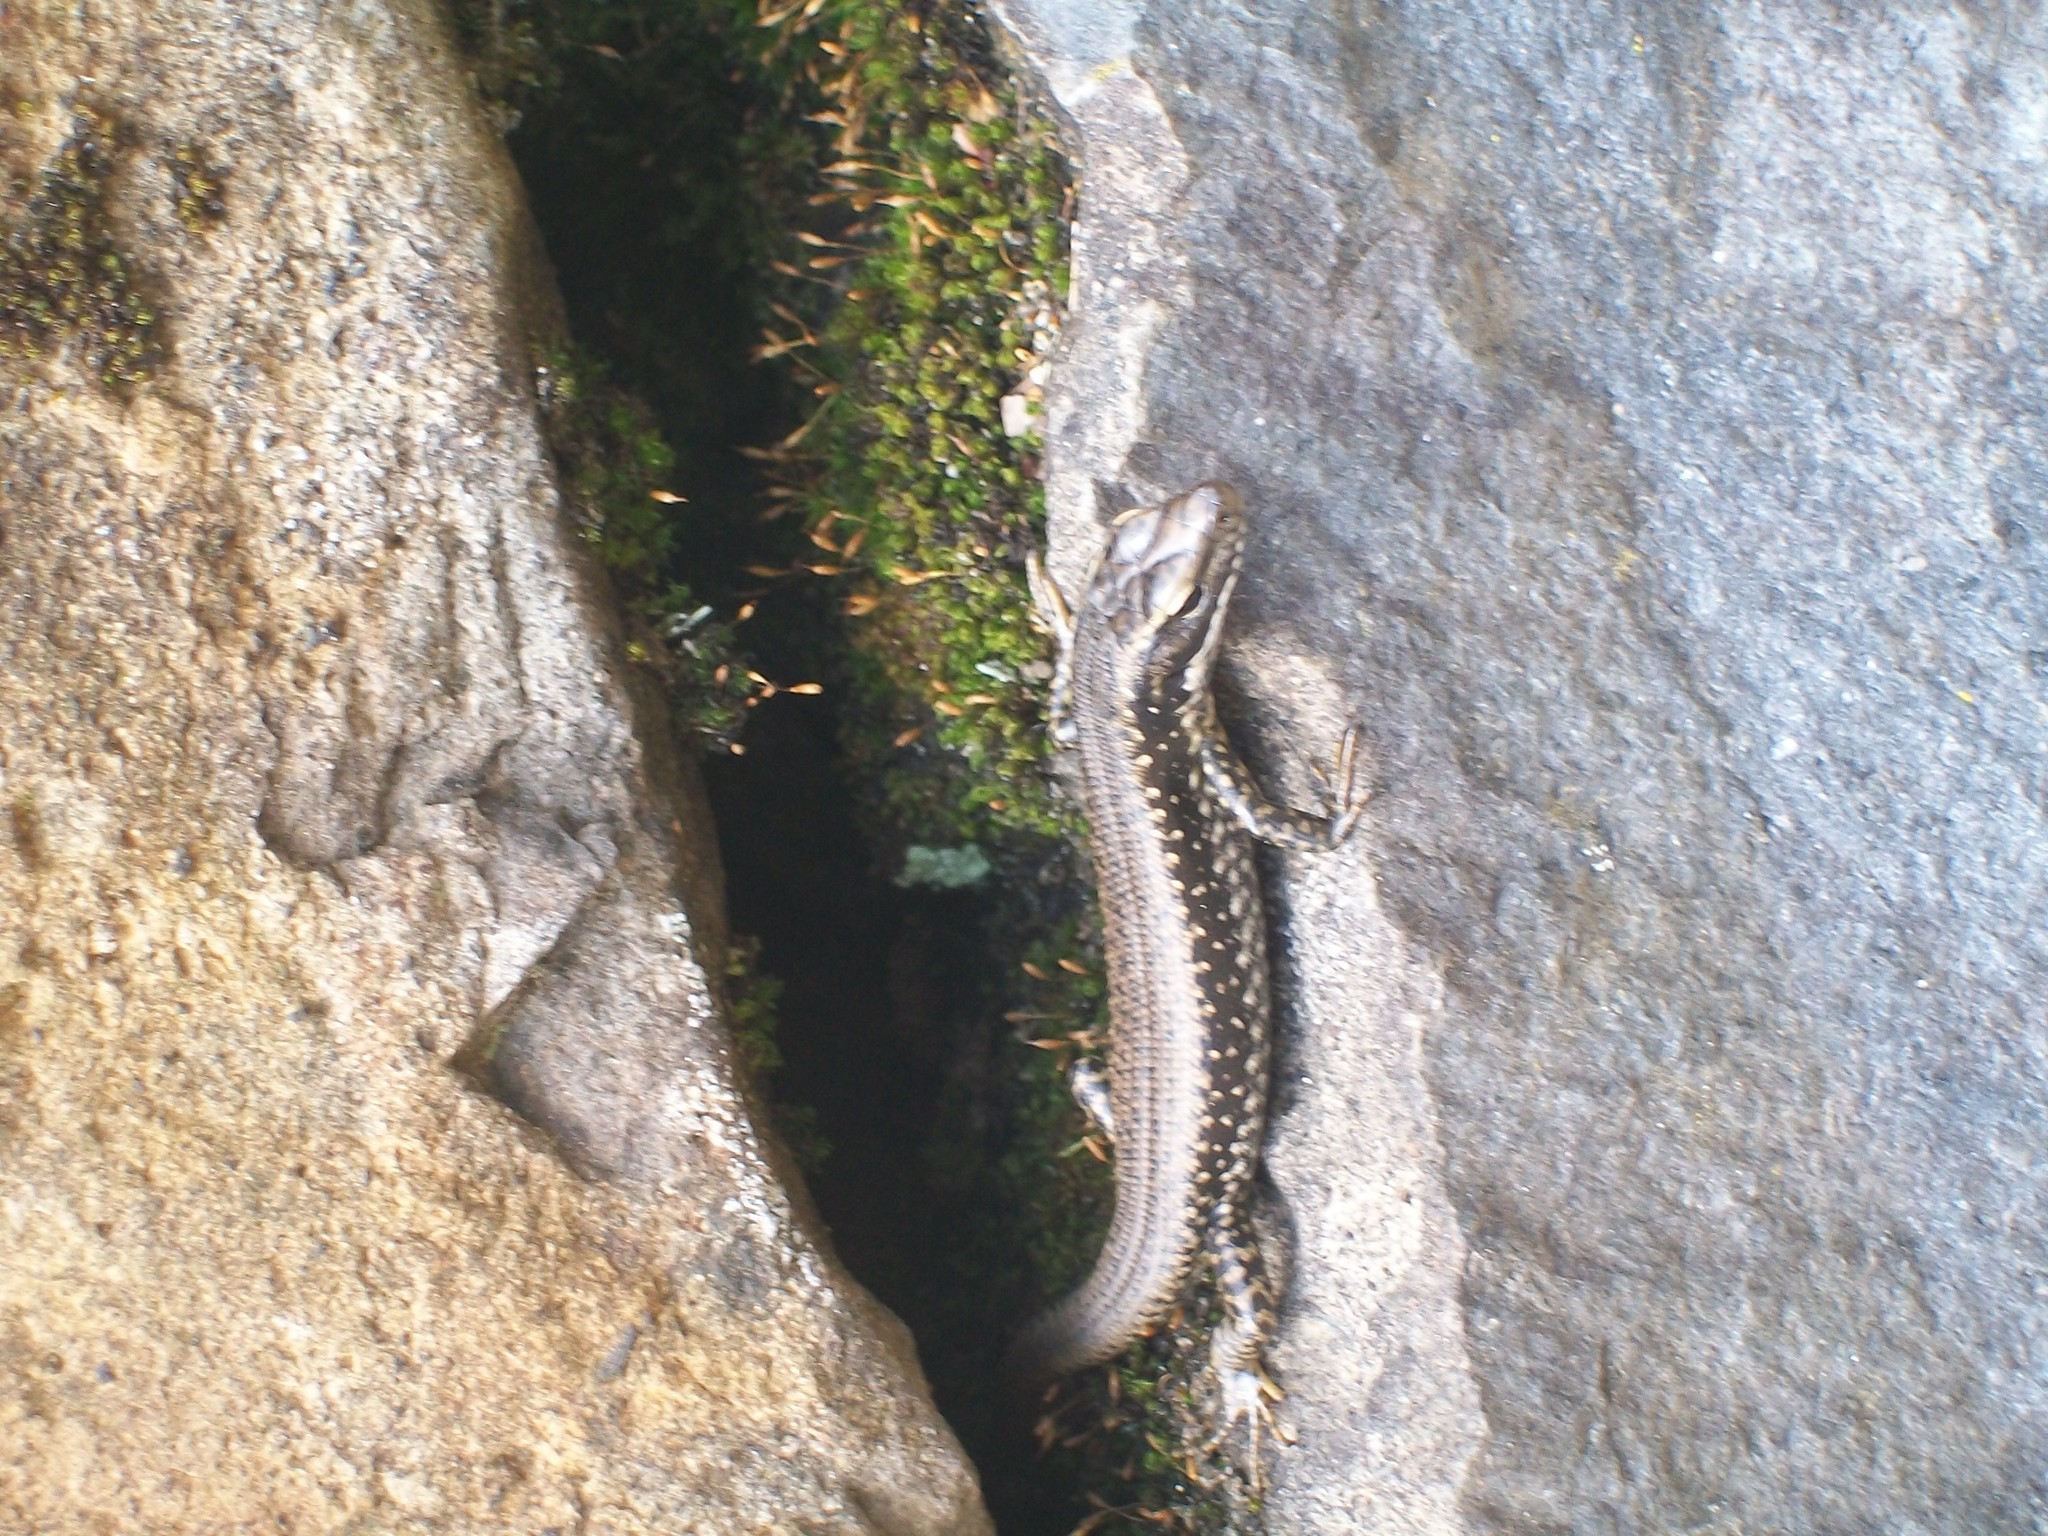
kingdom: Animalia
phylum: Chordata
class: Squamata
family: Scincidae
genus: Eulamprus
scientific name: Eulamprus heatwolei
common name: Warm-temperate water-skink
